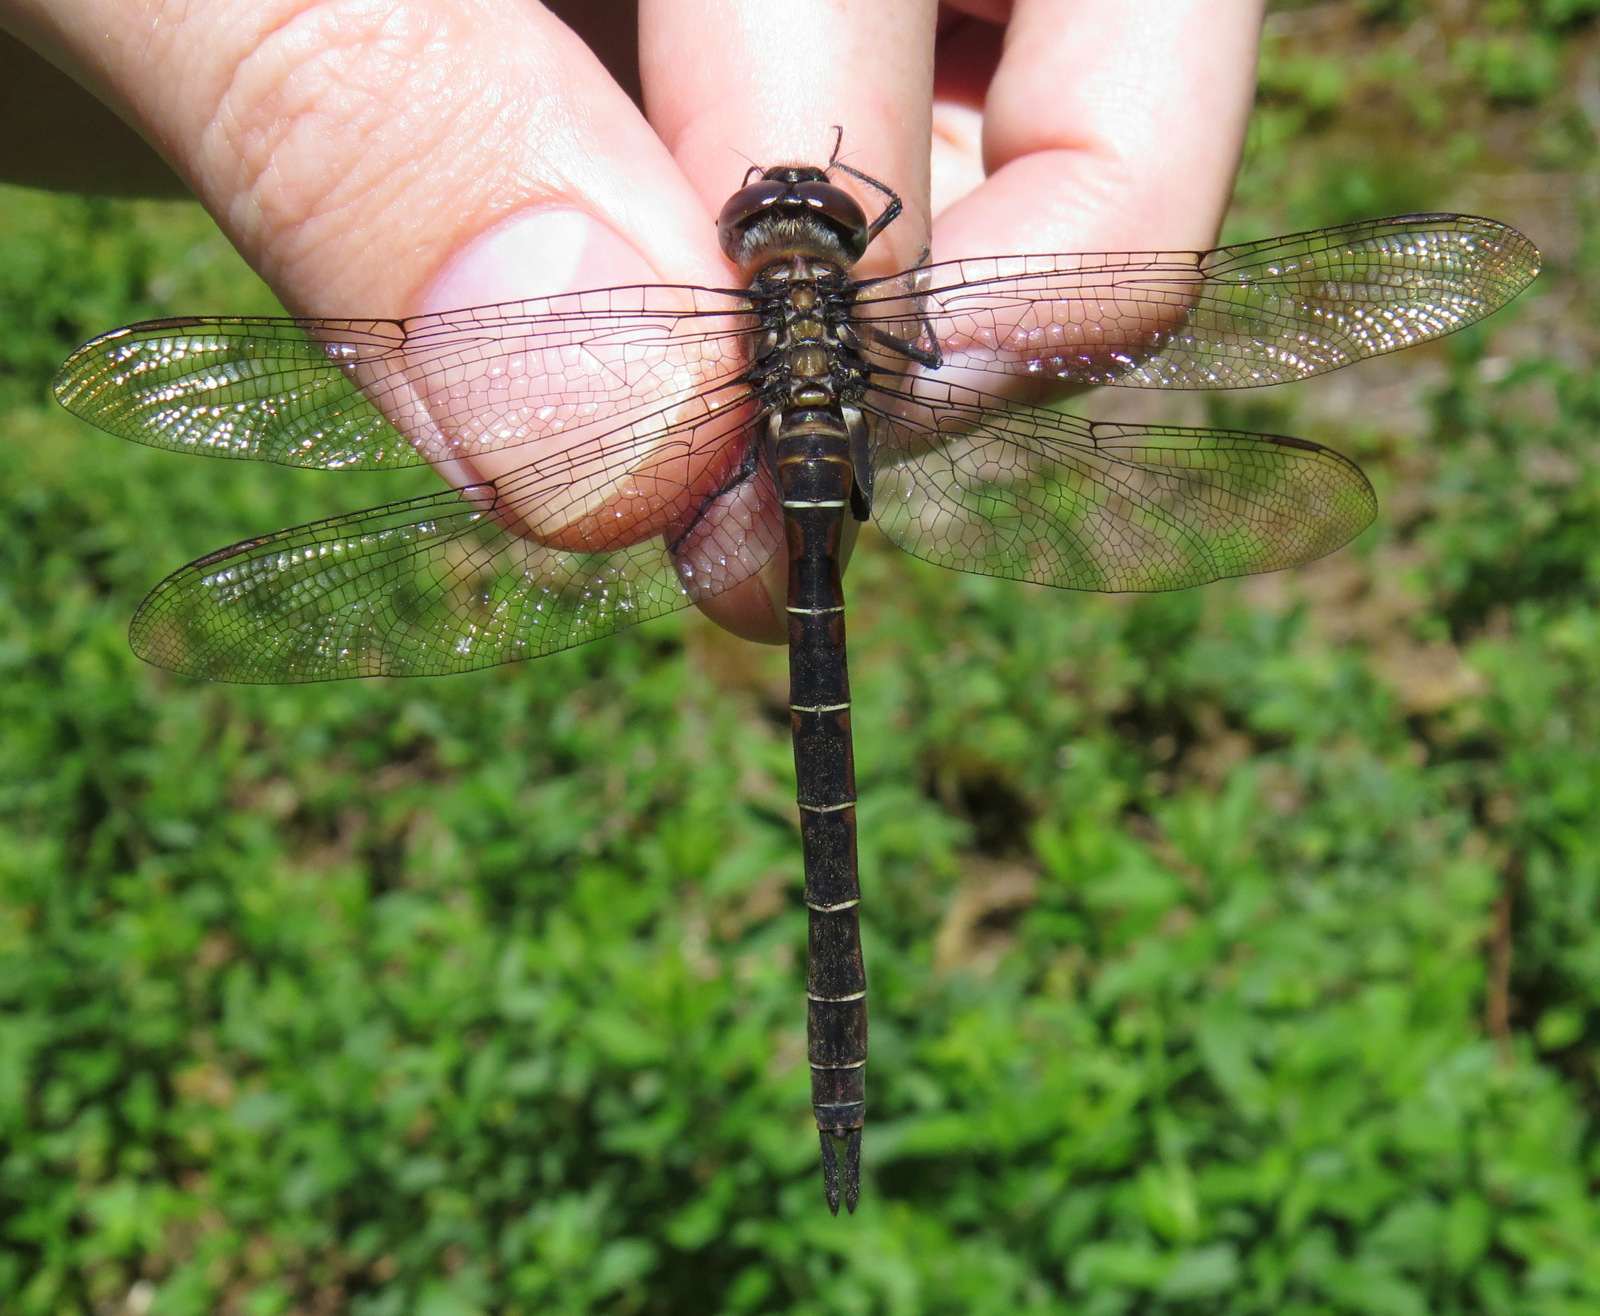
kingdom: Animalia
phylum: Arthropoda
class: Insecta
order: Odonata
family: Corduliidae
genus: Somatochlora
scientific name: Somatochlora cingulata
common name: Lake emerald
